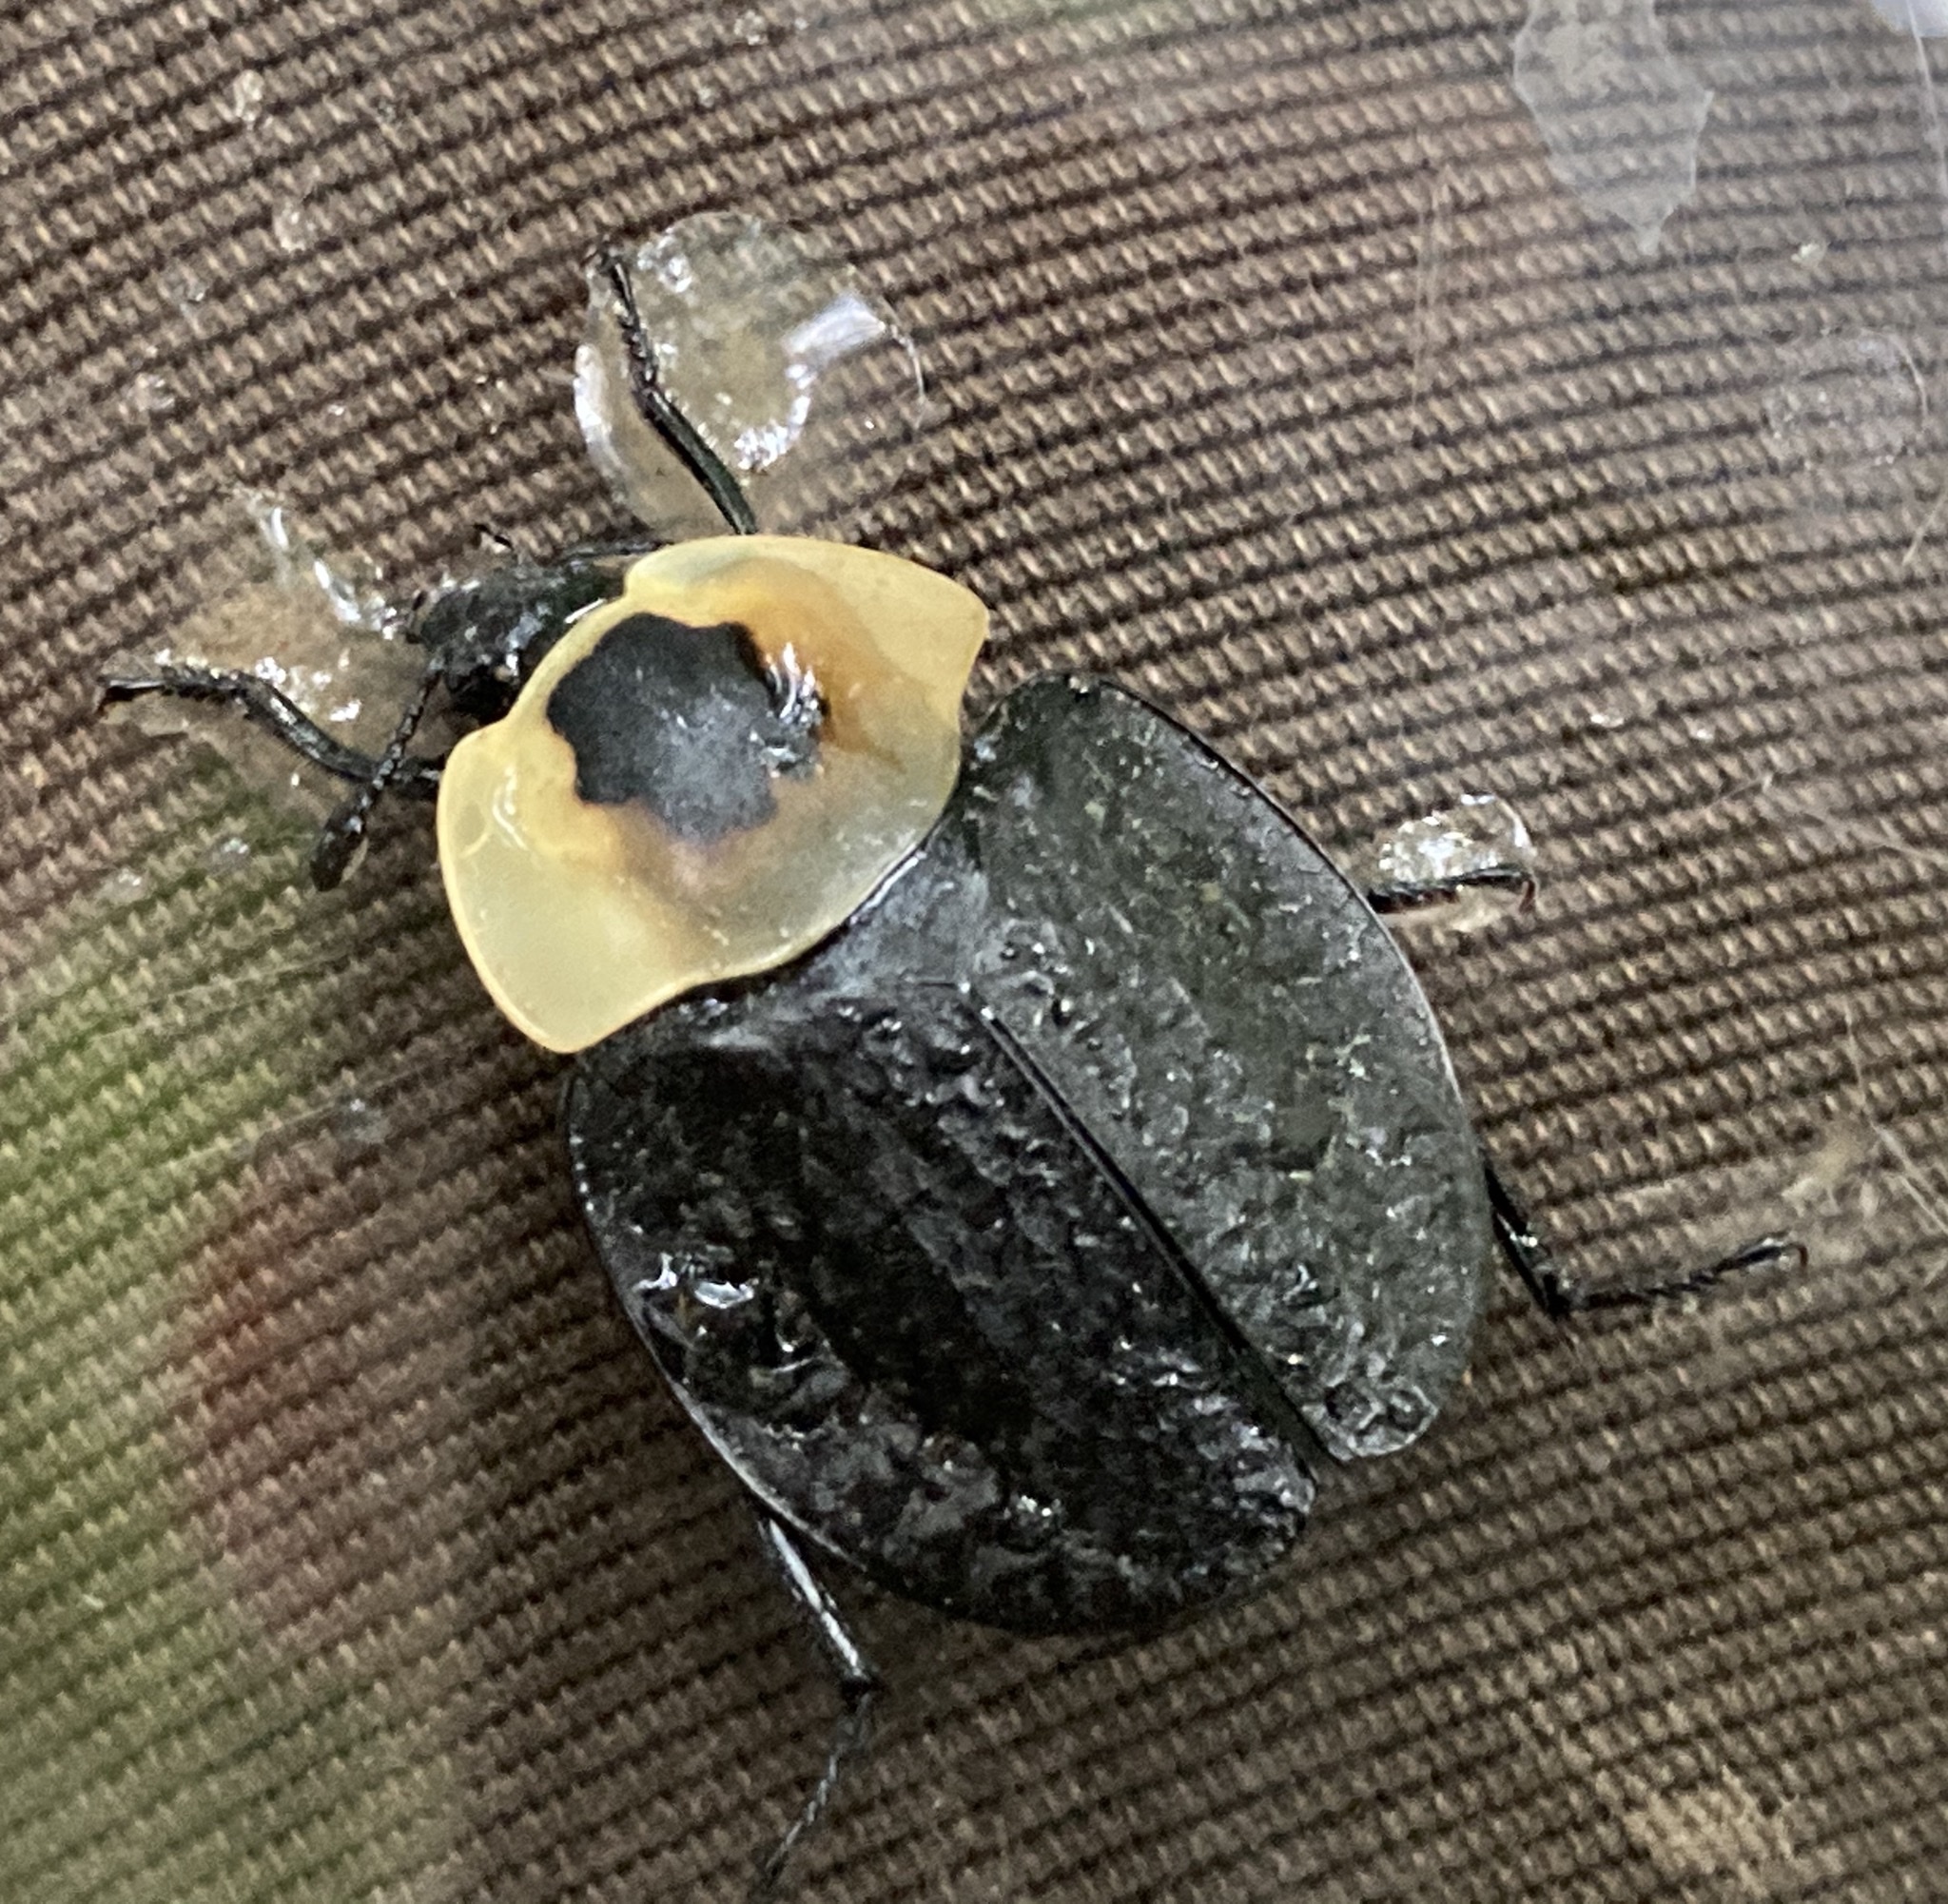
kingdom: Animalia
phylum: Arthropoda
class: Insecta
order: Coleoptera
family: Staphylinidae
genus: Necrophila
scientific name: Necrophila americana
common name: American carrion beetle
